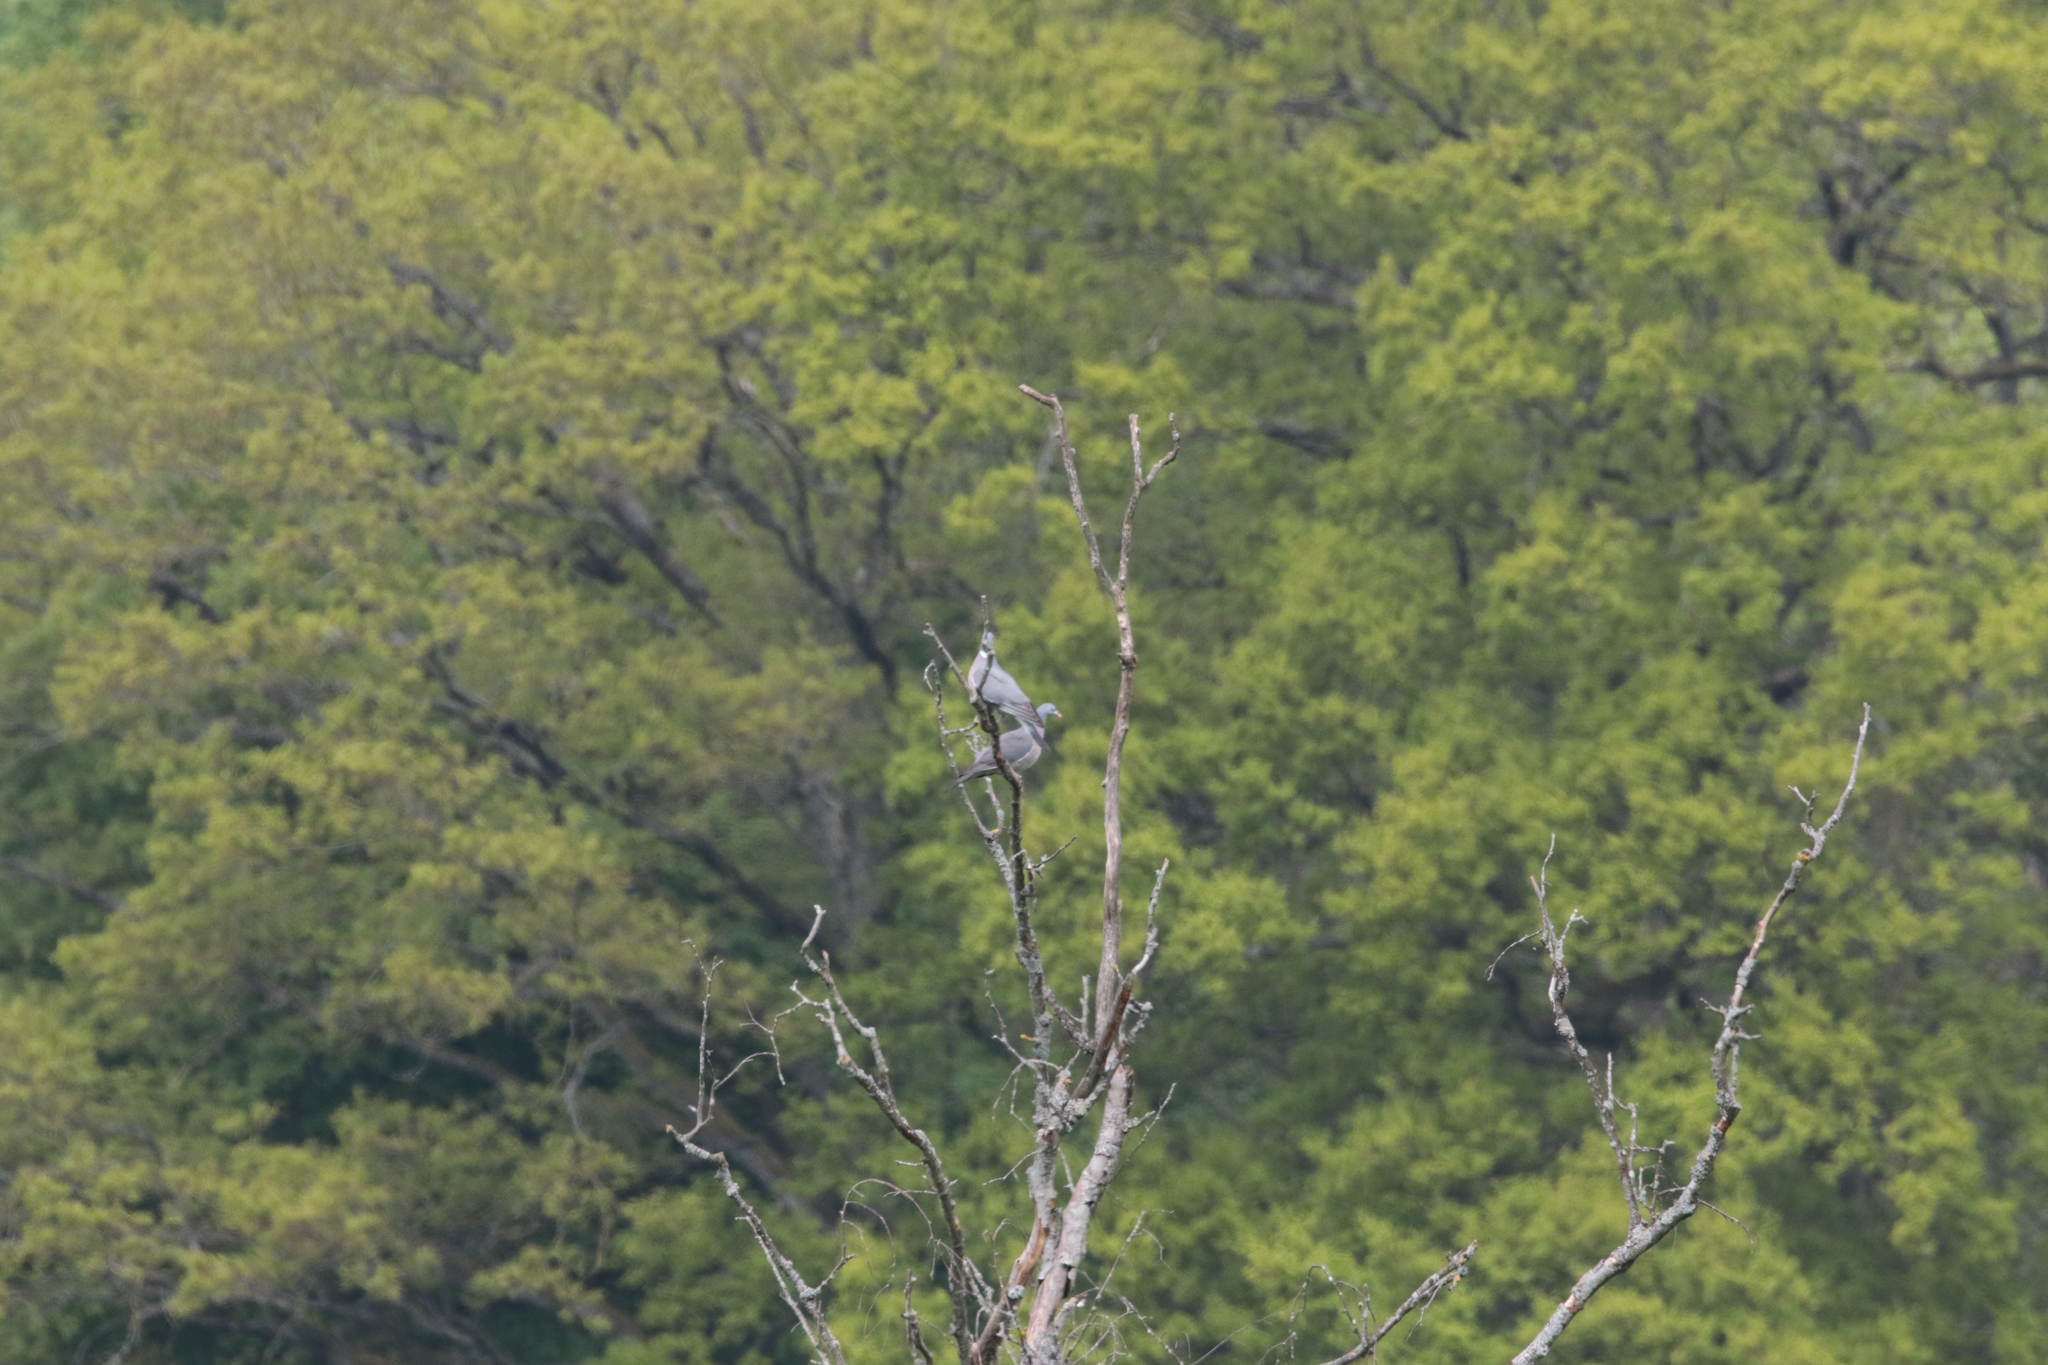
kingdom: Animalia
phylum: Chordata
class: Aves
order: Columbiformes
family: Columbidae
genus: Columba
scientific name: Columba palumbus
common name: Common wood pigeon
